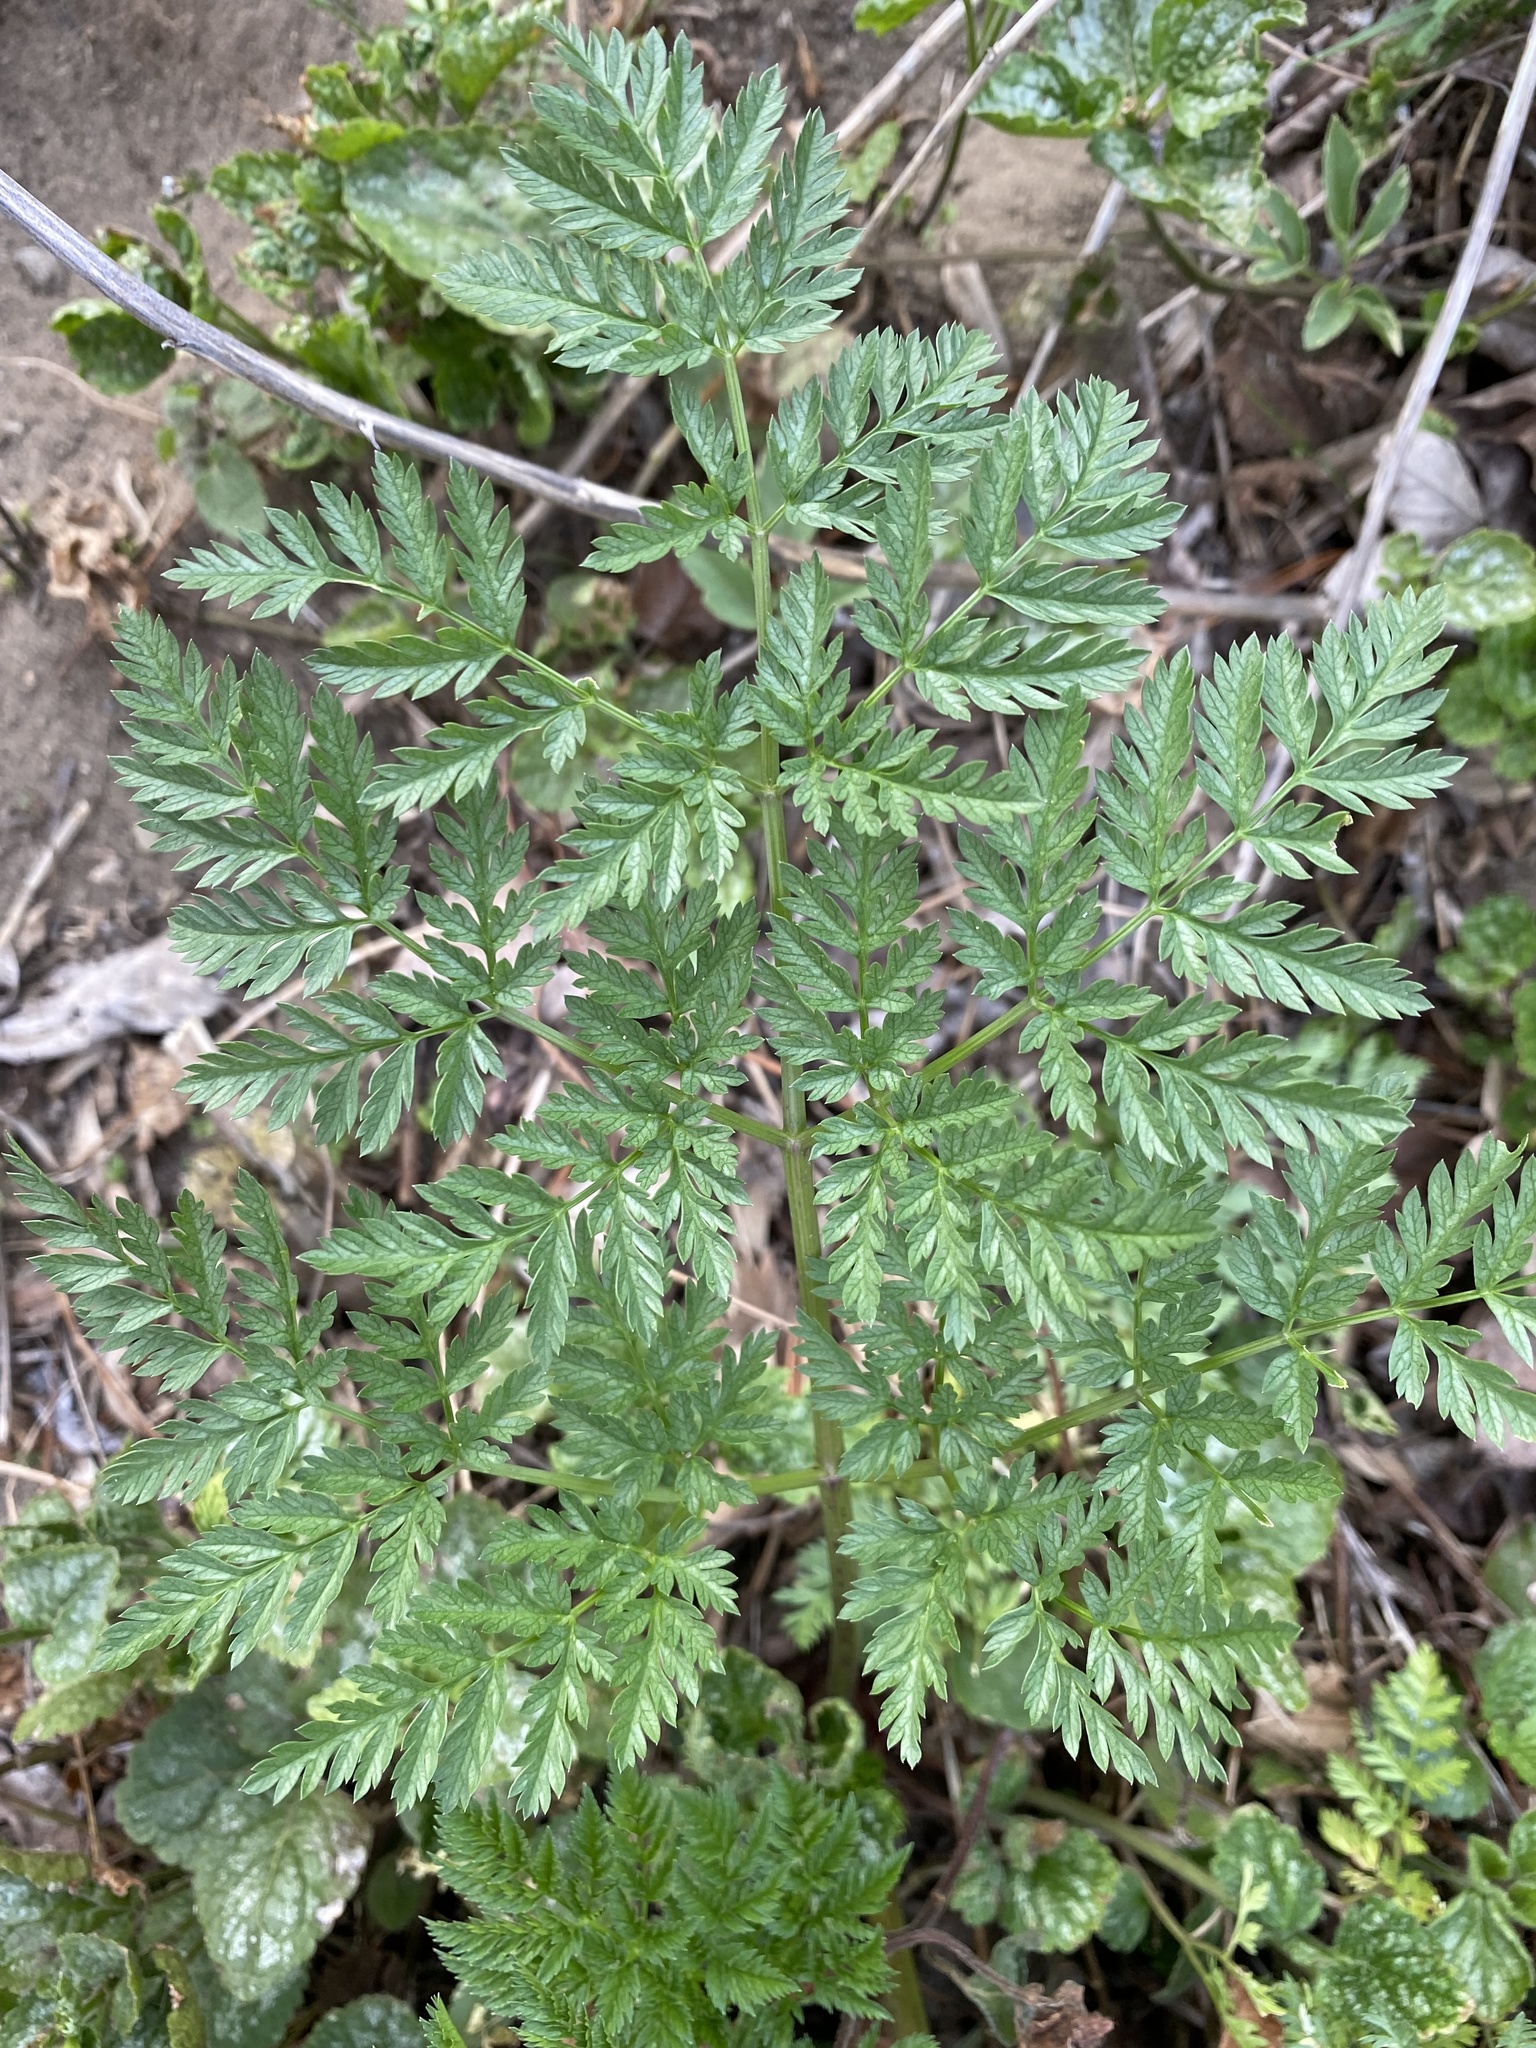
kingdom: Plantae
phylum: Tracheophyta
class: Magnoliopsida
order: Apiales
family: Apiaceae
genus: Conium
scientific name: Conium maculatum
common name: Hemlock
